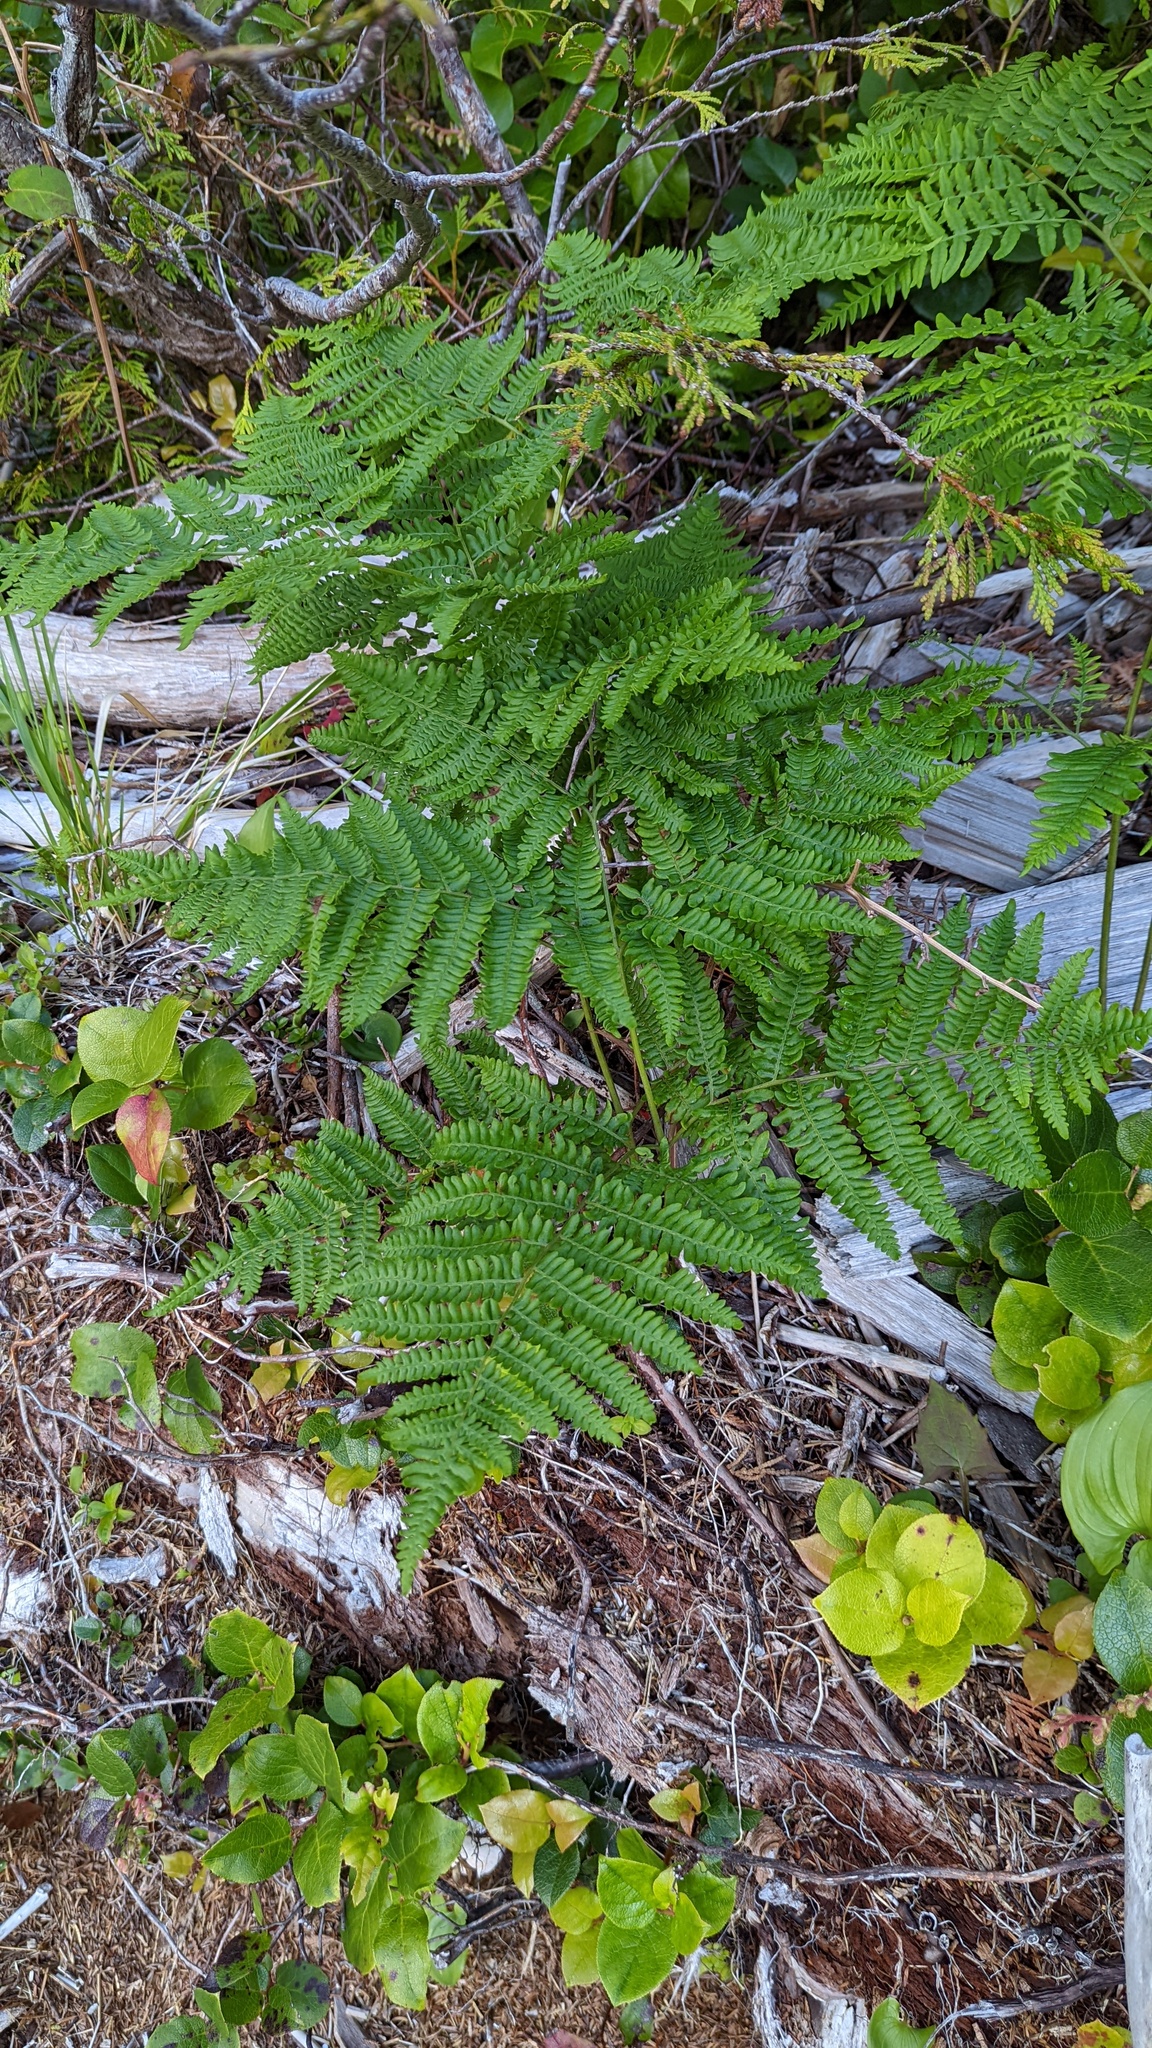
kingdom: Plantae
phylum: Tracheophyta
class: Polypodiopsida
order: Polypodiales
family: Dennstaedtiaceae
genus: Pteridium
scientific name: Pteridium aquilinum
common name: Bracken
